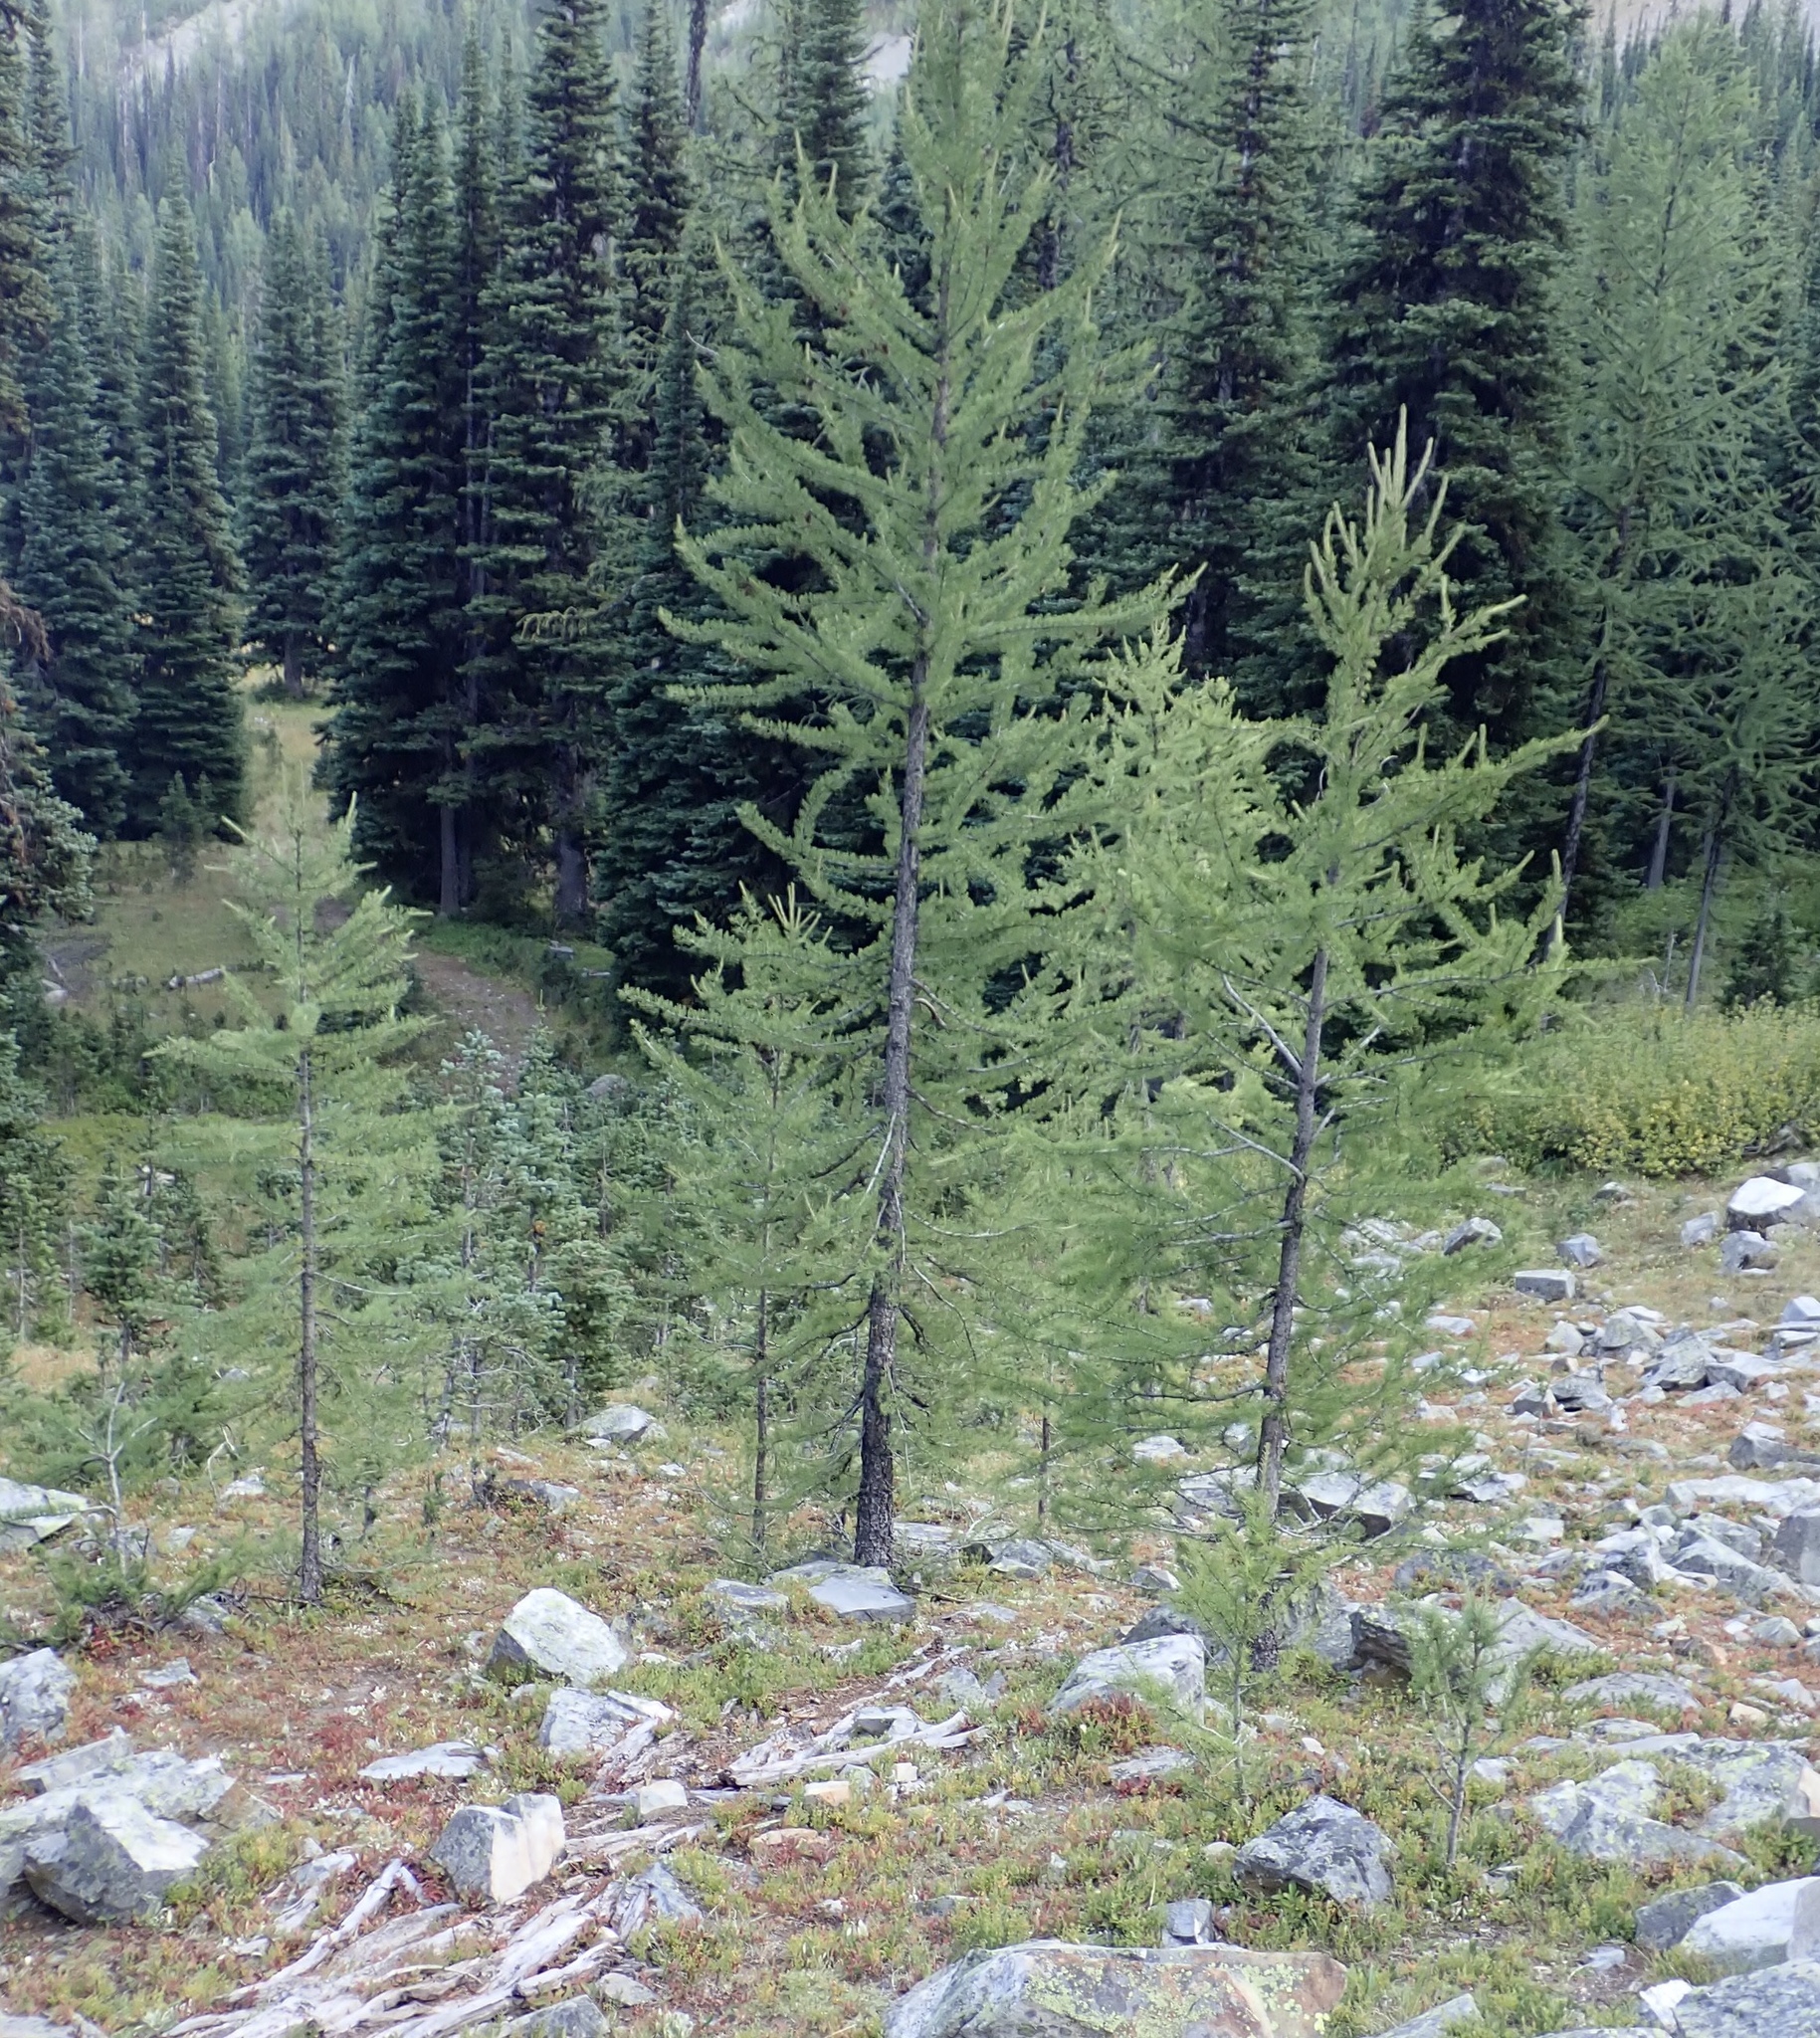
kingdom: Plantae
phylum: Tracheophyta
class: Pinopsida
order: Pinales
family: Pinaceae
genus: Larix
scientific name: Larix lyallii
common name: Alpine larch
